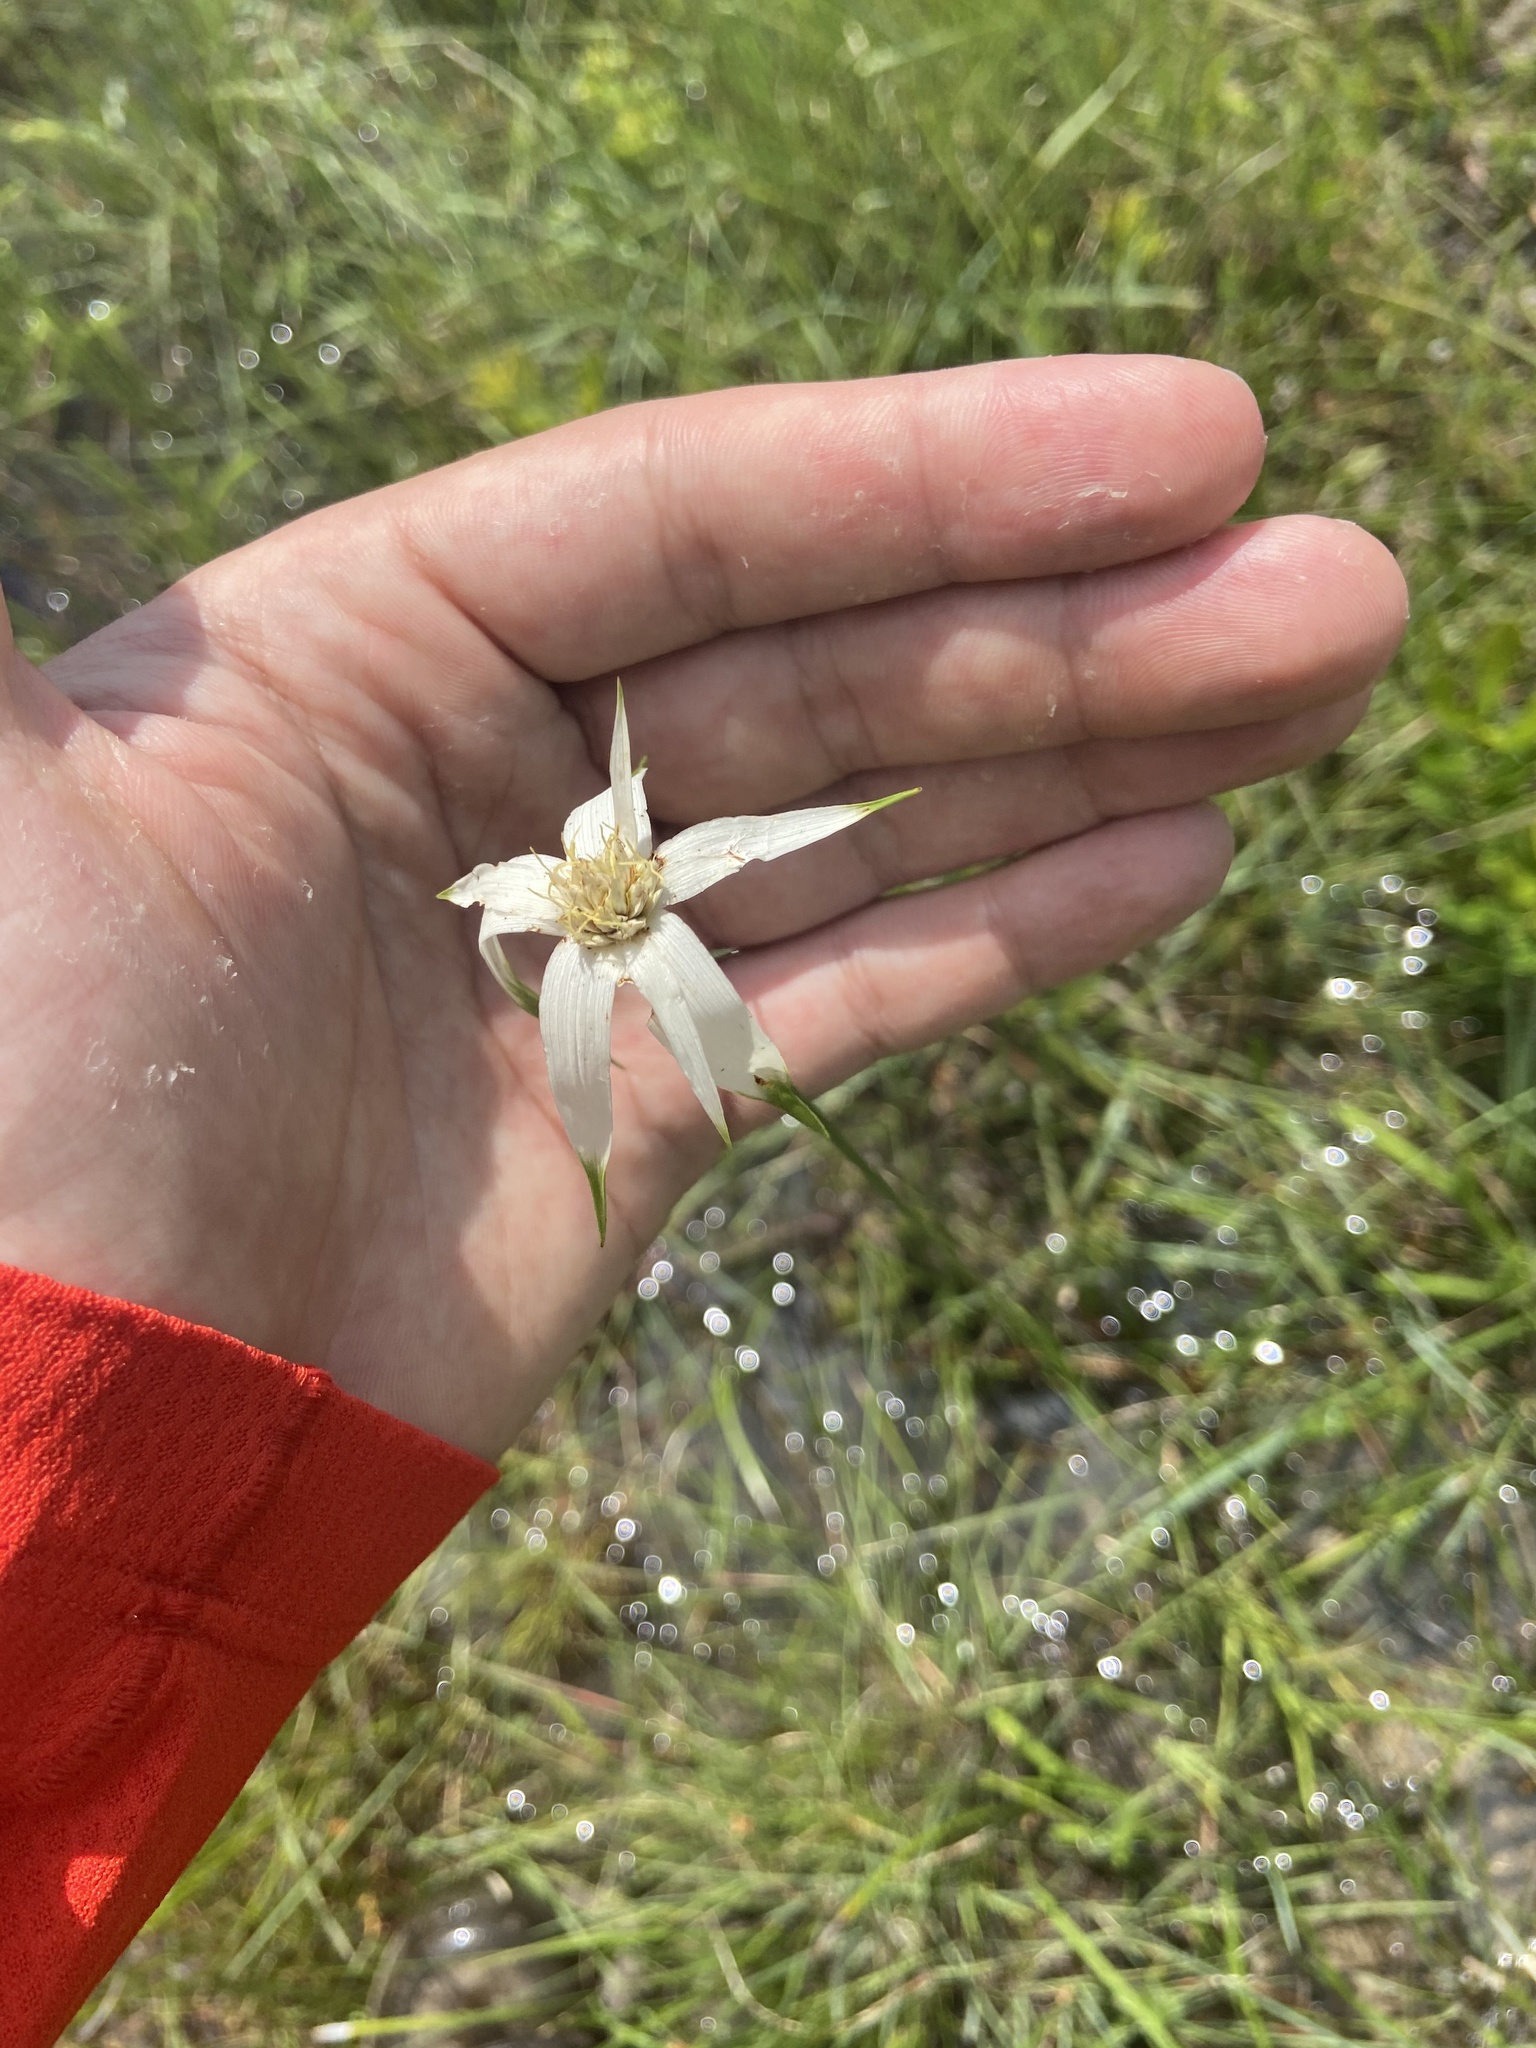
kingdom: Plantae
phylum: Tracheophyta
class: Liliopsida
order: Poales
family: Cyperaceae
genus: Rhynchospora
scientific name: Rhynchospora latifolia
